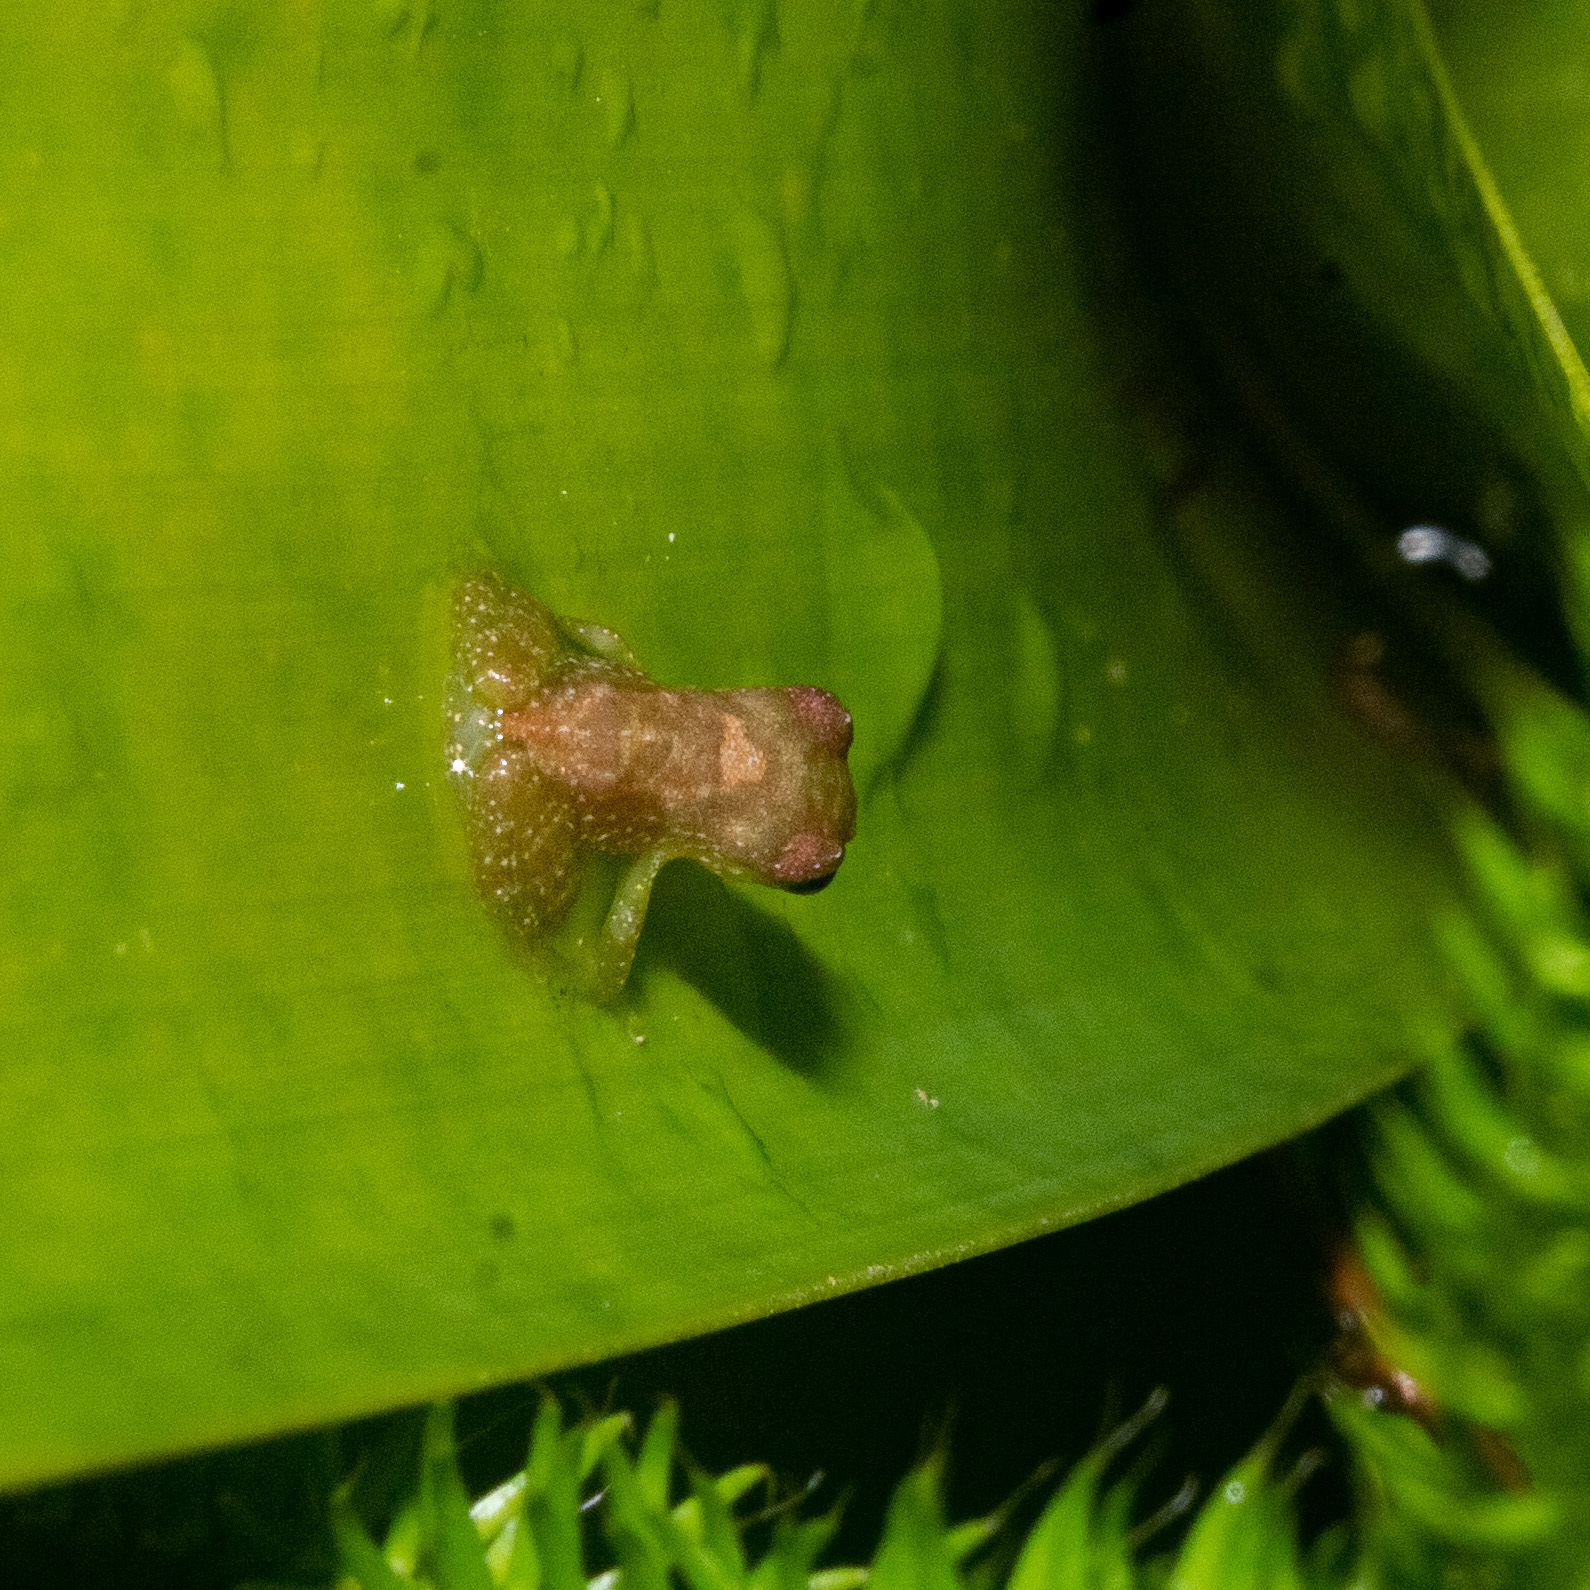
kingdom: Animalia
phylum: Chordata
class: Amphibia
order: Anura
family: Craugastoridae
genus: Tachiramantis
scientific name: Tachiramantis
